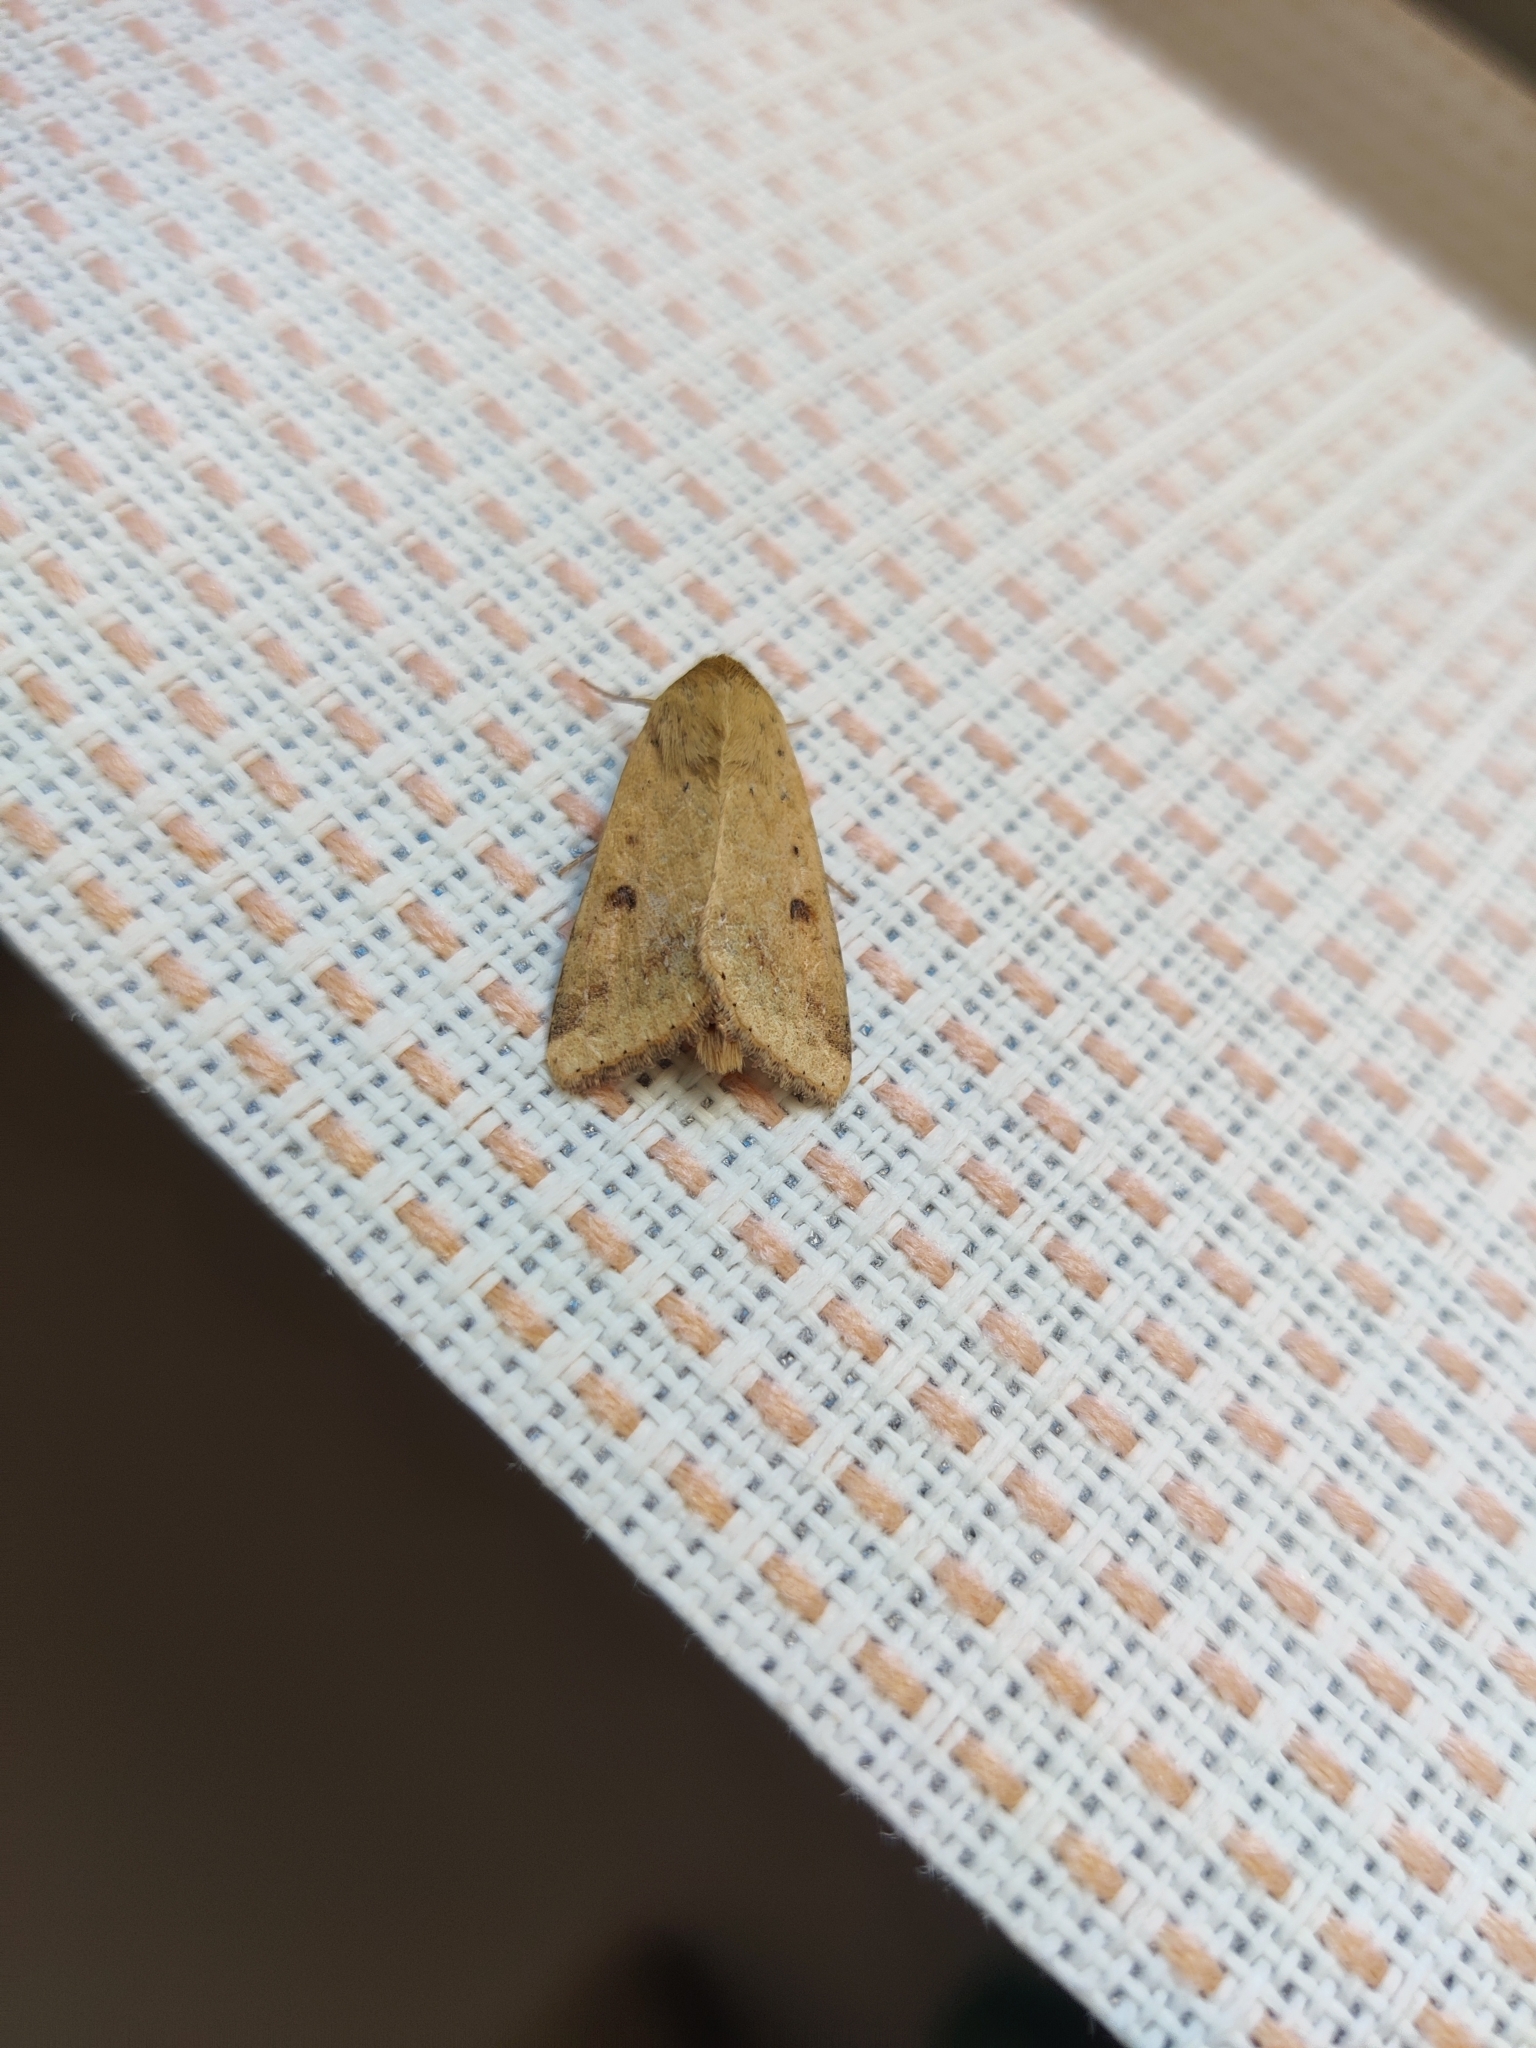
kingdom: Animalia
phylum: Arthropoda
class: Insecta
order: Lepidoptera
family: Noctuidae
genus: Helicoverpa
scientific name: Helicoverpa armigera
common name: Cotton bollworm
